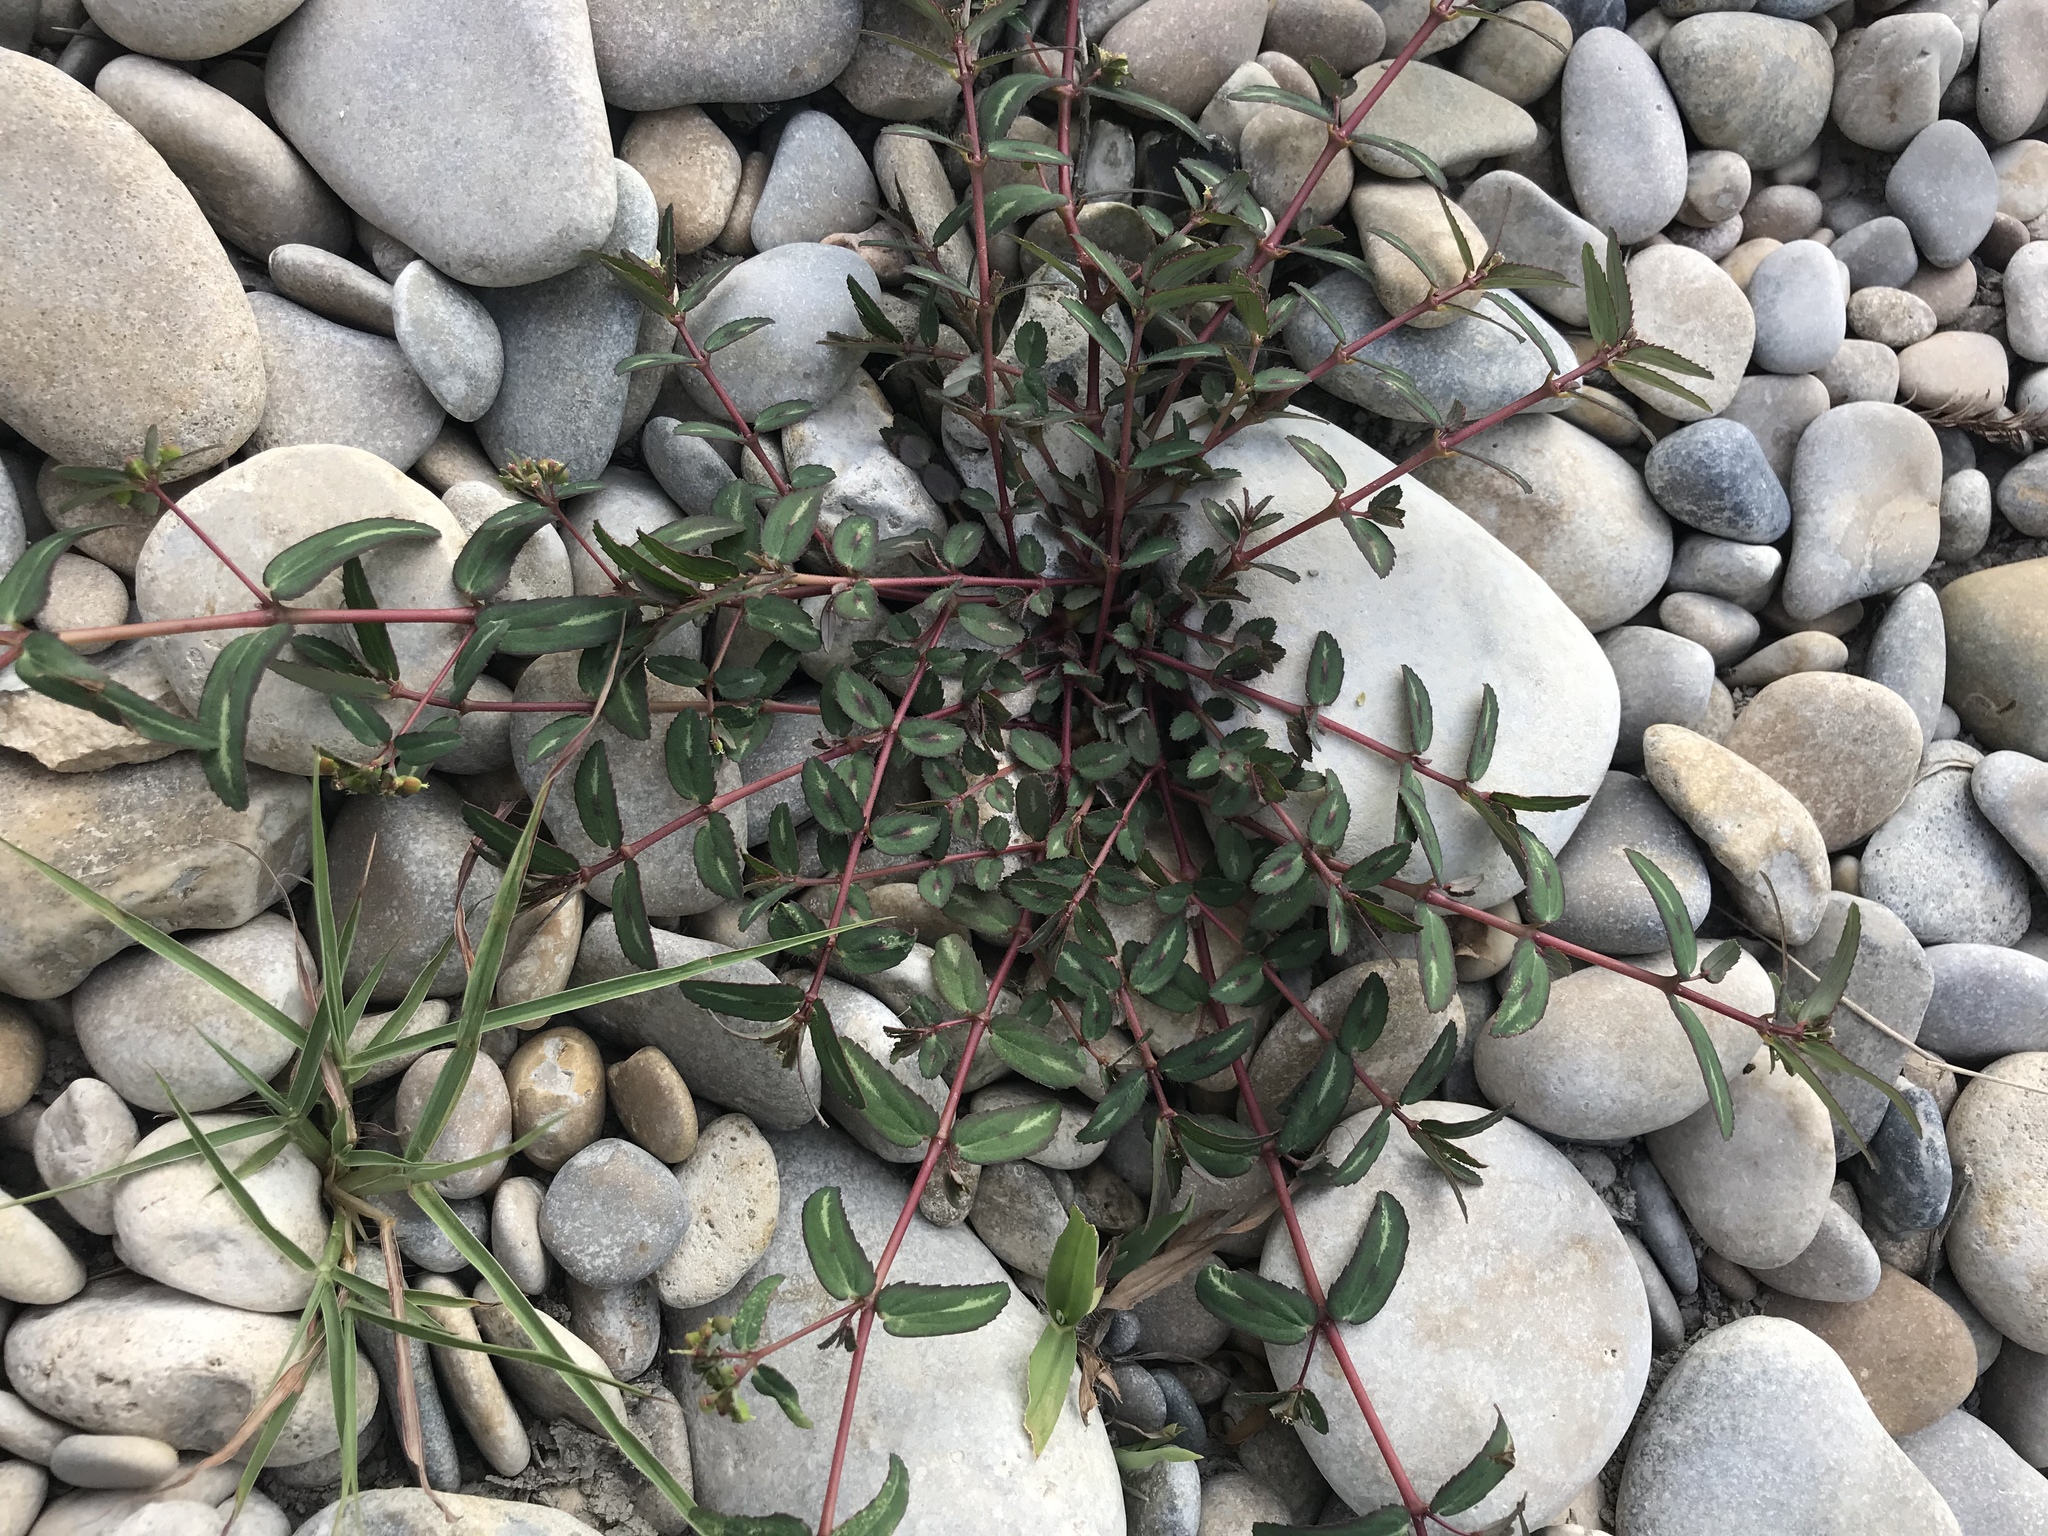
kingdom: Plantae
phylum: Tracheophyta
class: Magnoliopsida
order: Malpighiales
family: Euphorbiaceae
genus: Euphorbia
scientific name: Euphorbia nutans
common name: Eyebane
